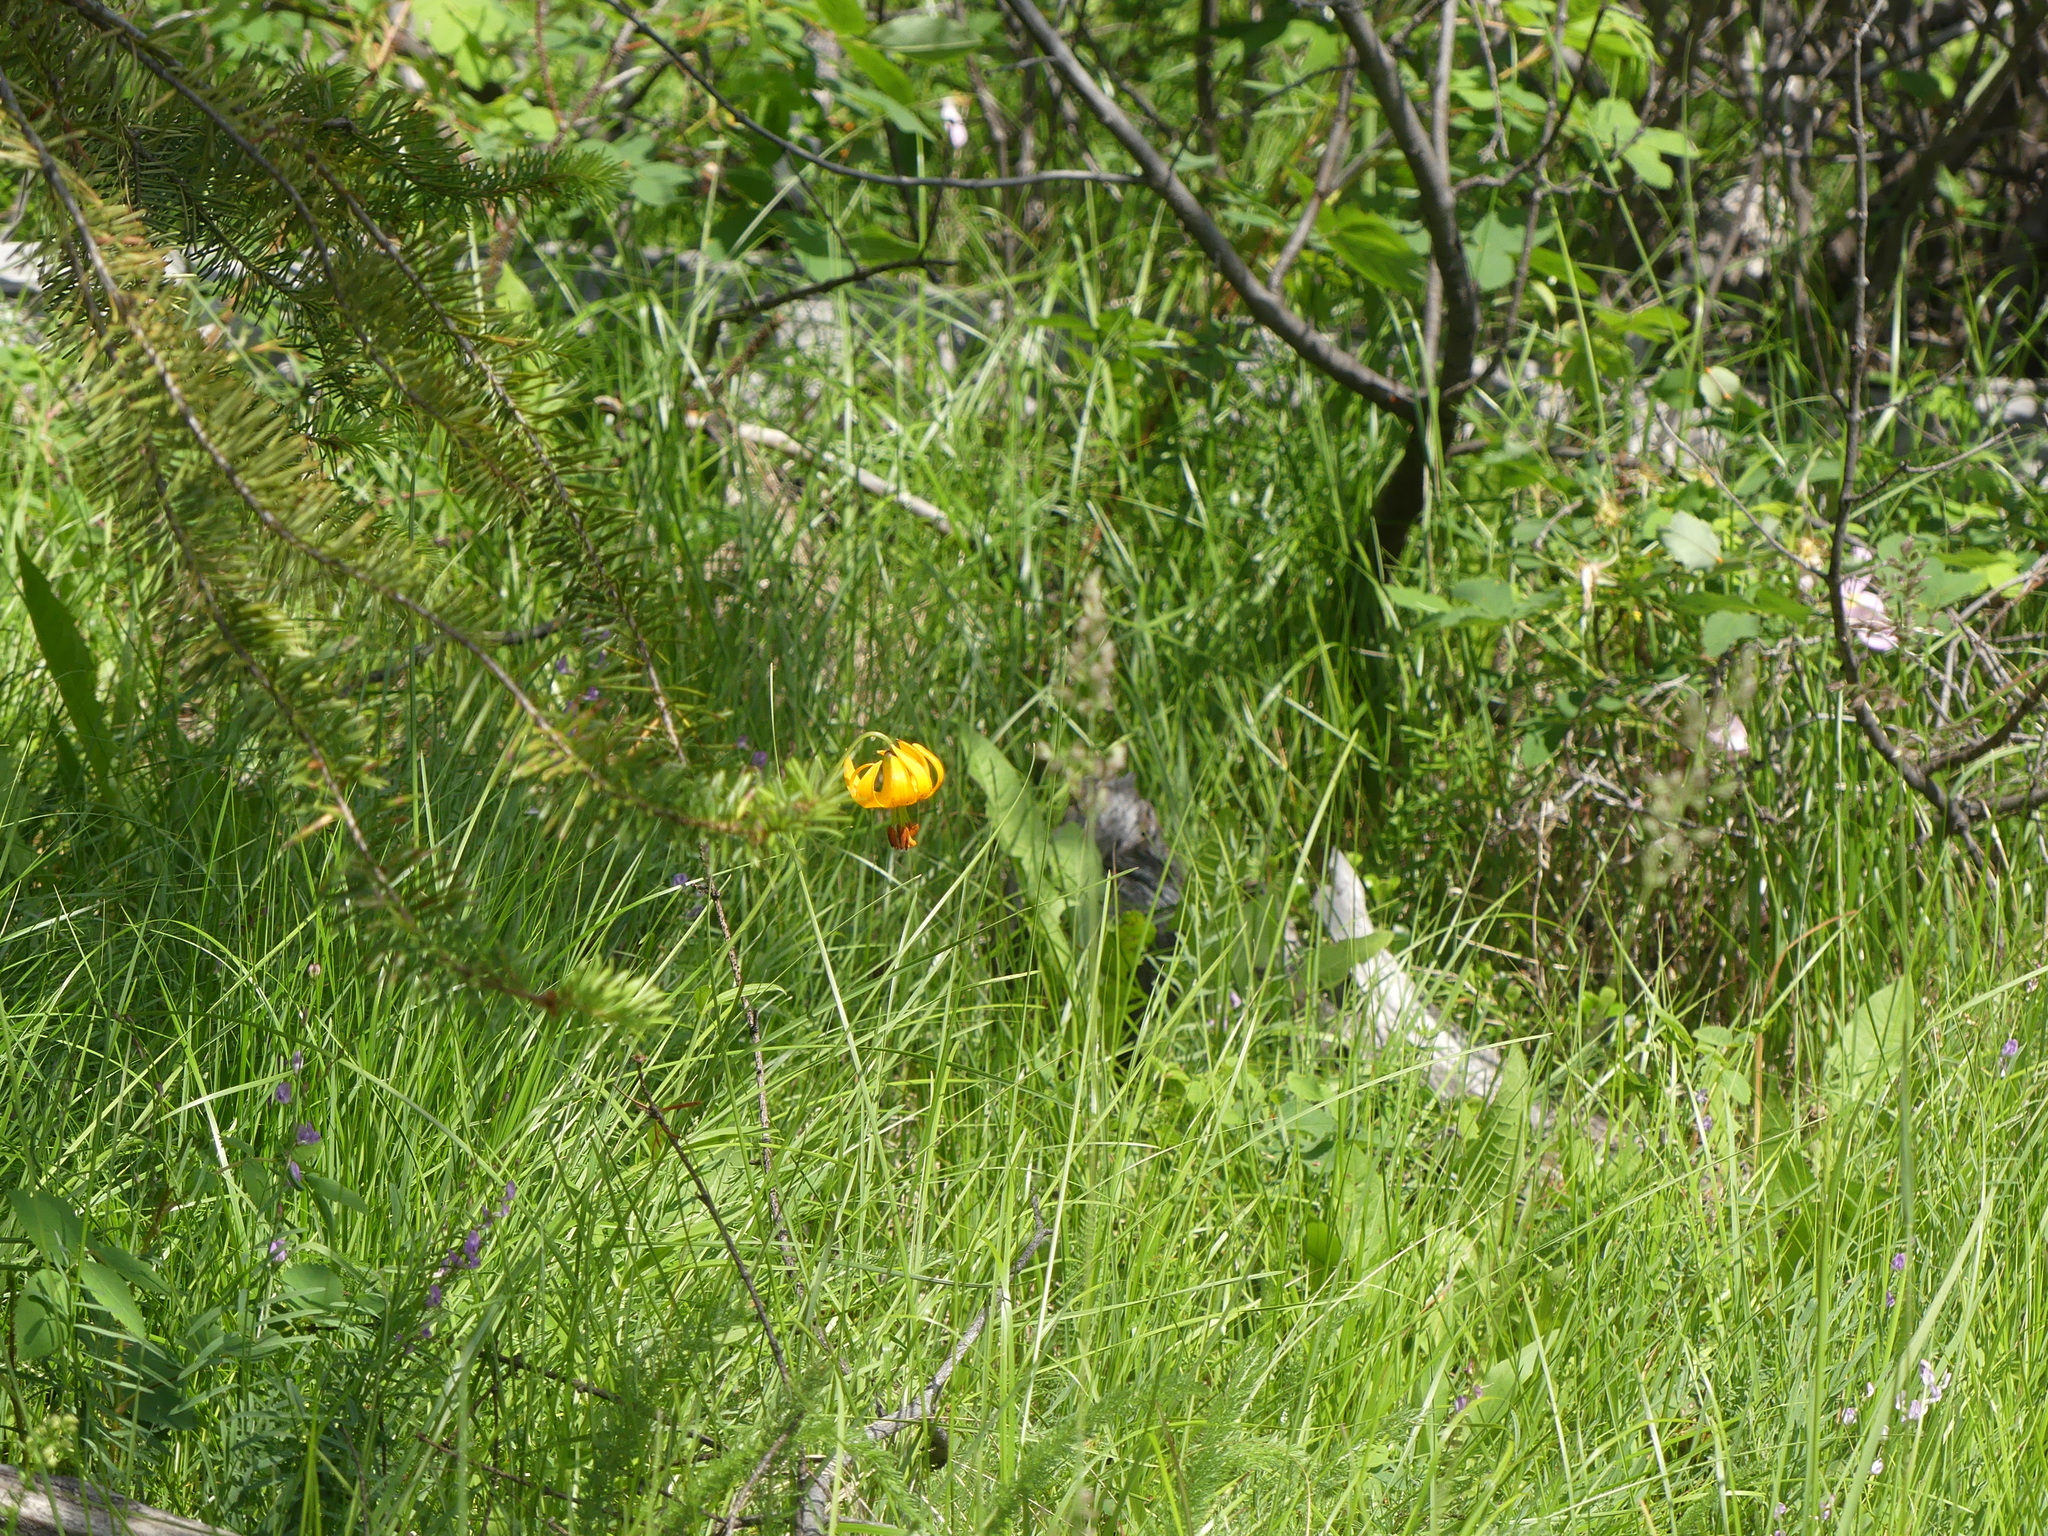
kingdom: Plantae
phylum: Tracheophyta
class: Liliopsida
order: Liliales
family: Liliaceae
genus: Lilium
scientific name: Lilium columbianum
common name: Columbia lily
